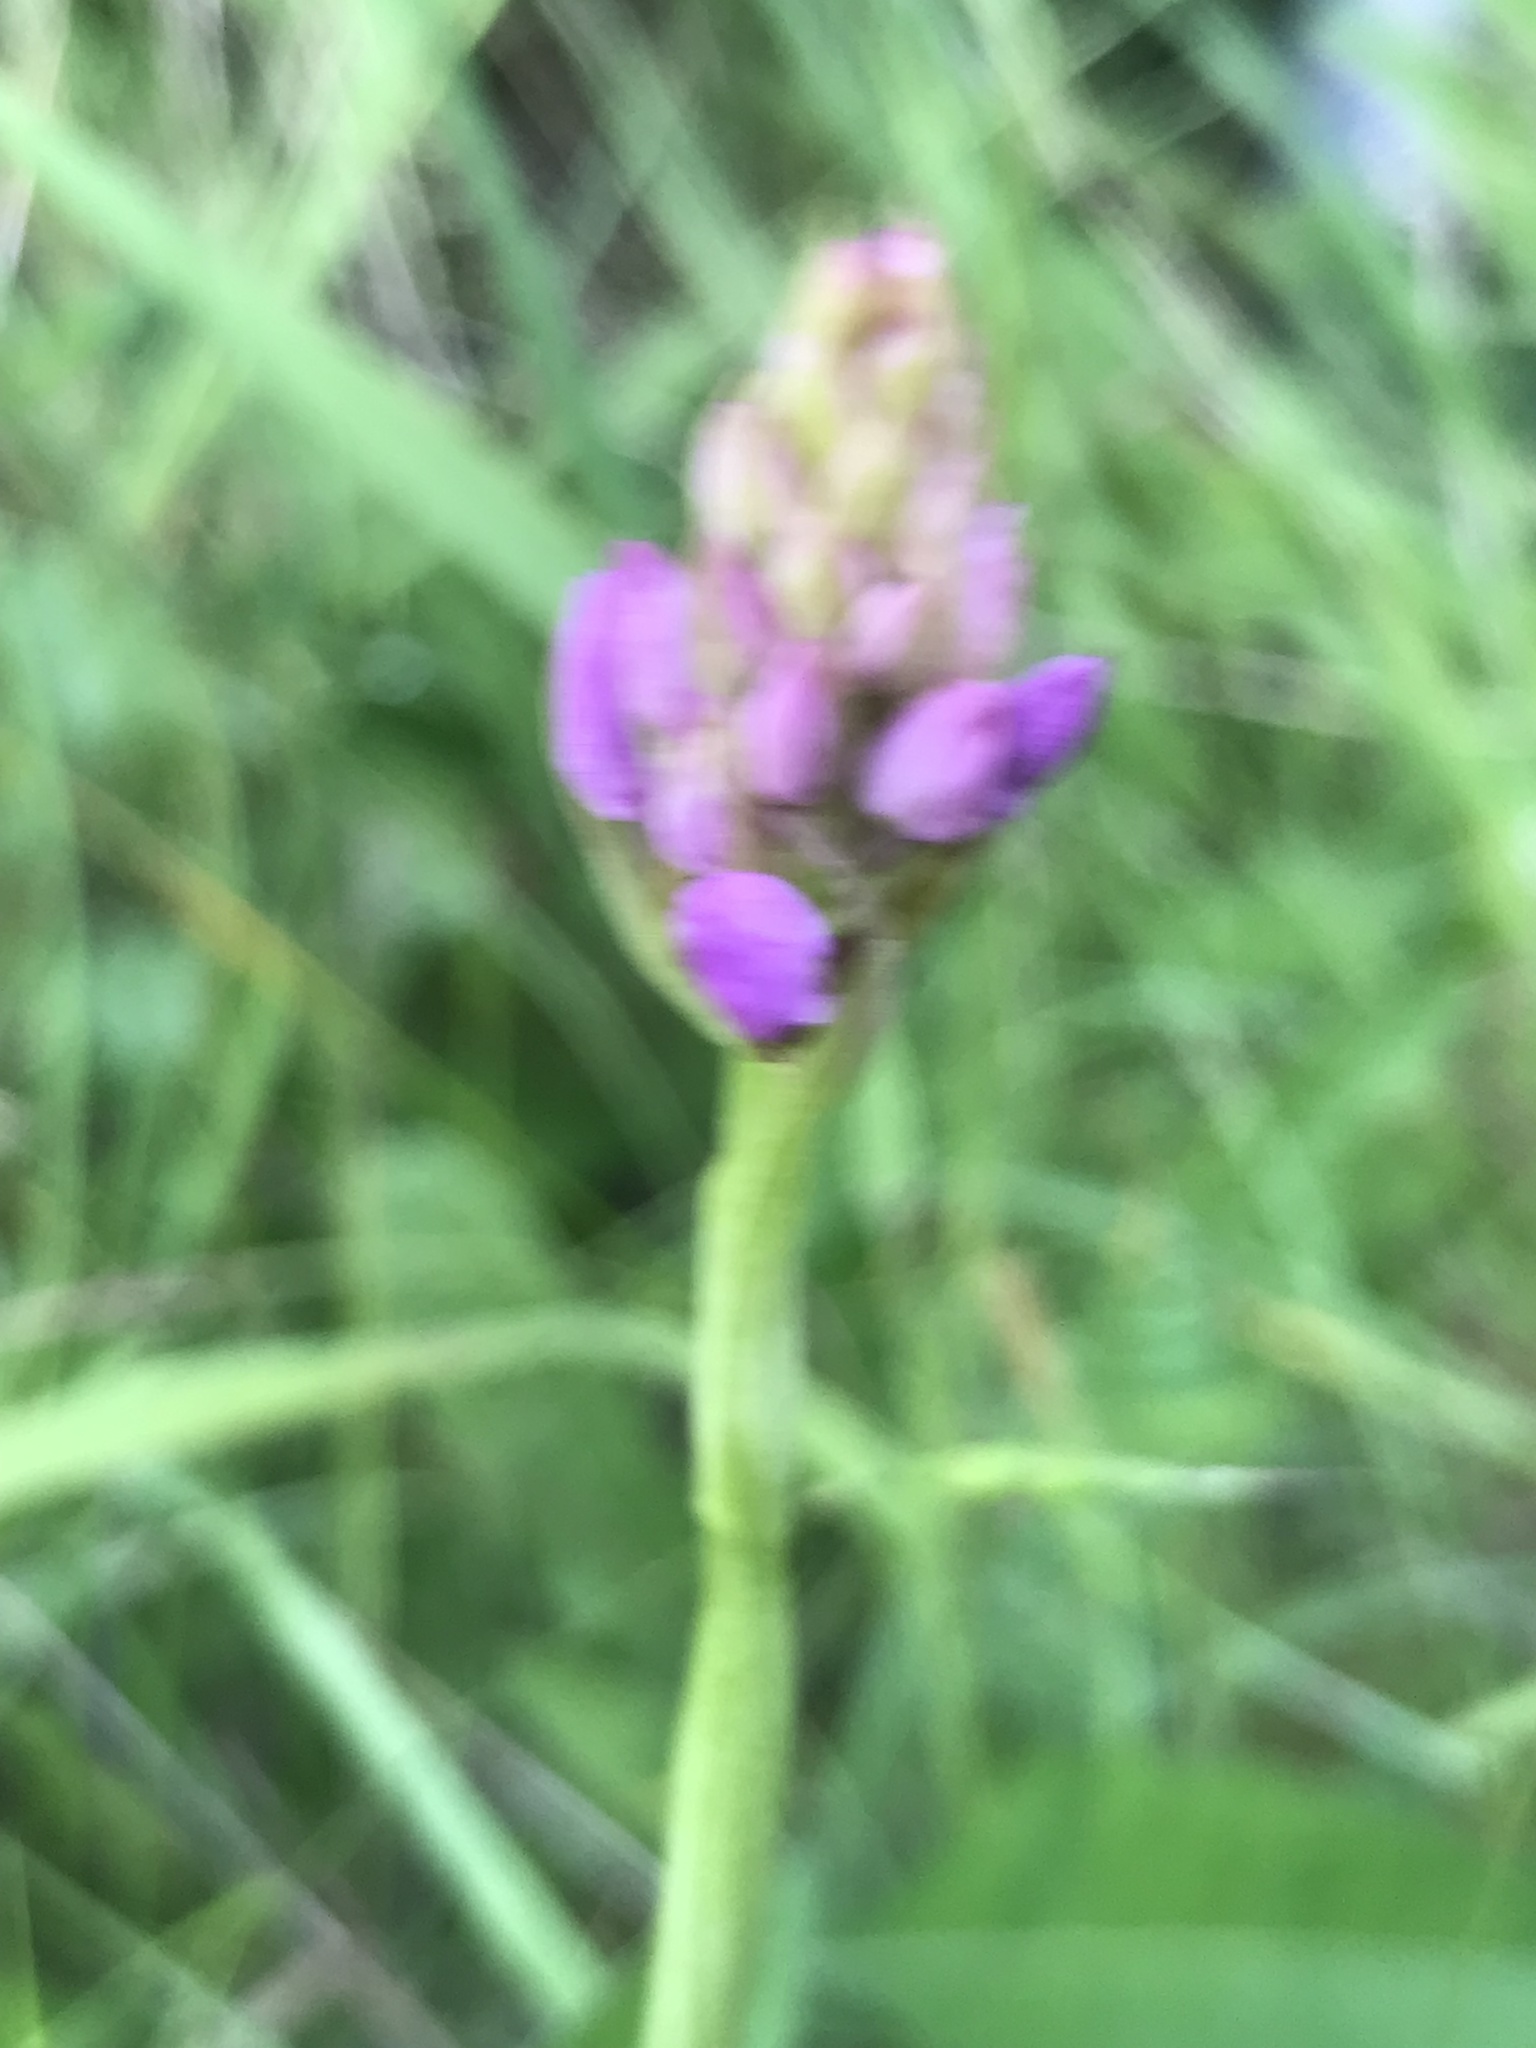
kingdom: Plantae
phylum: Tracheophyta
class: Liliopsida
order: Asparagales
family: Orchidaceae
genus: Anacamptis
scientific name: Anacamptis pyramidalis
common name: Pyramidal orchid
